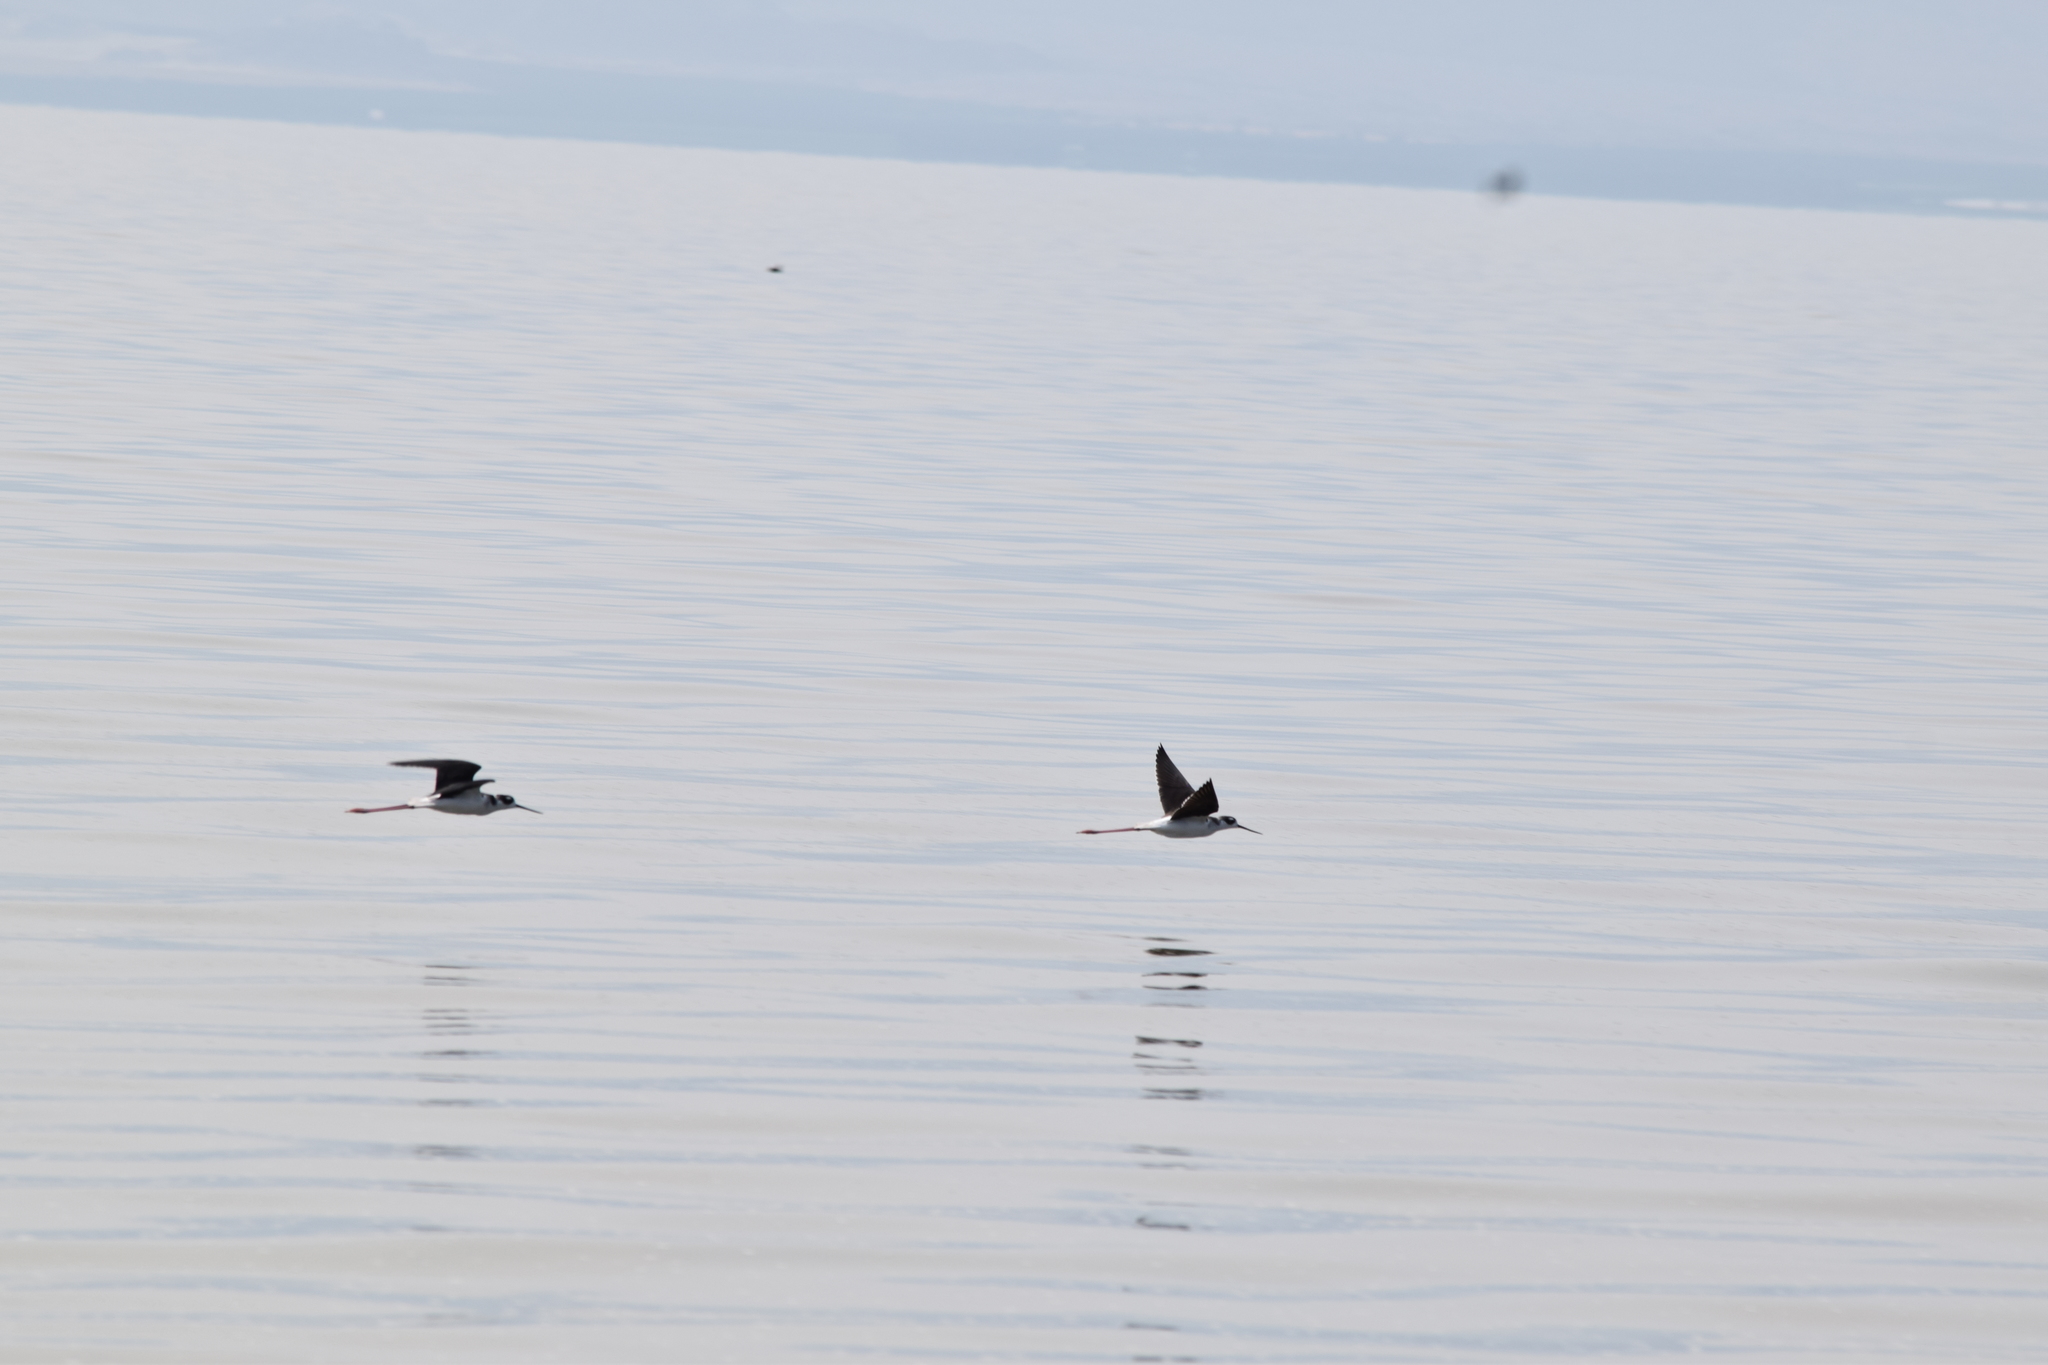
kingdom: Animalia
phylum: Chordata
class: Aves
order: Charadriiformes
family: Recurvirostridae
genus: Himantopus
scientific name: Himantopus mexicanus
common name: Black-necked stilt
